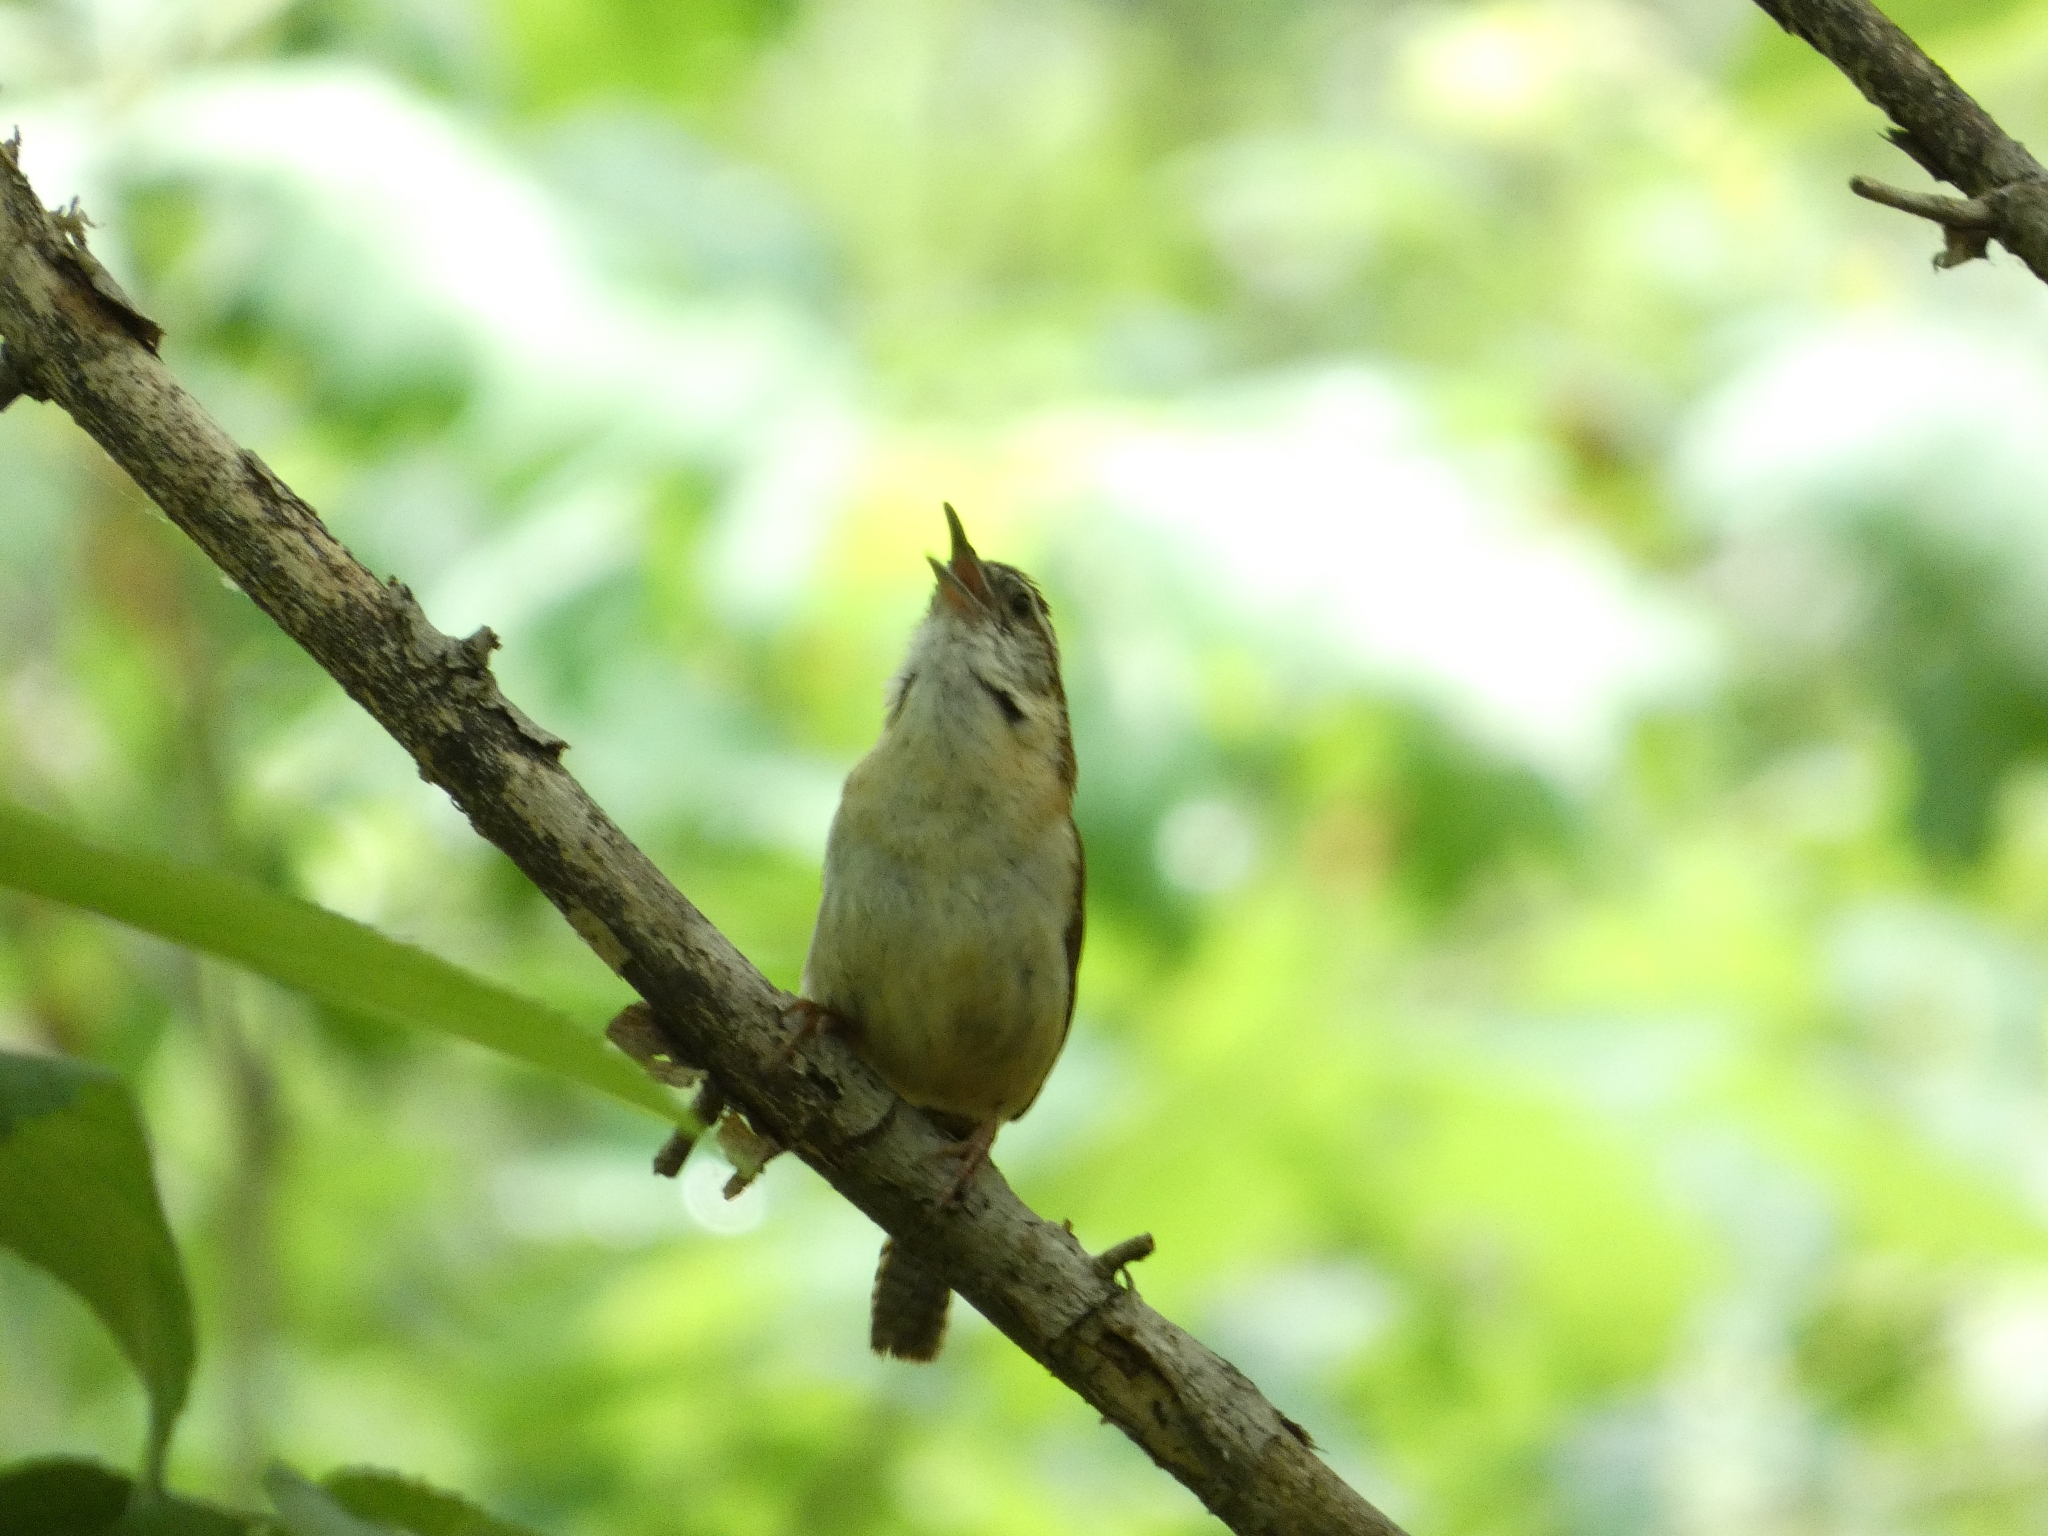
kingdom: Animalia
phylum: Chordata
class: Aves
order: Passeriformes
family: Troglodytidae
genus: Thryothorus
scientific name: Thryothorus ludovicianus
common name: Carolina wren
